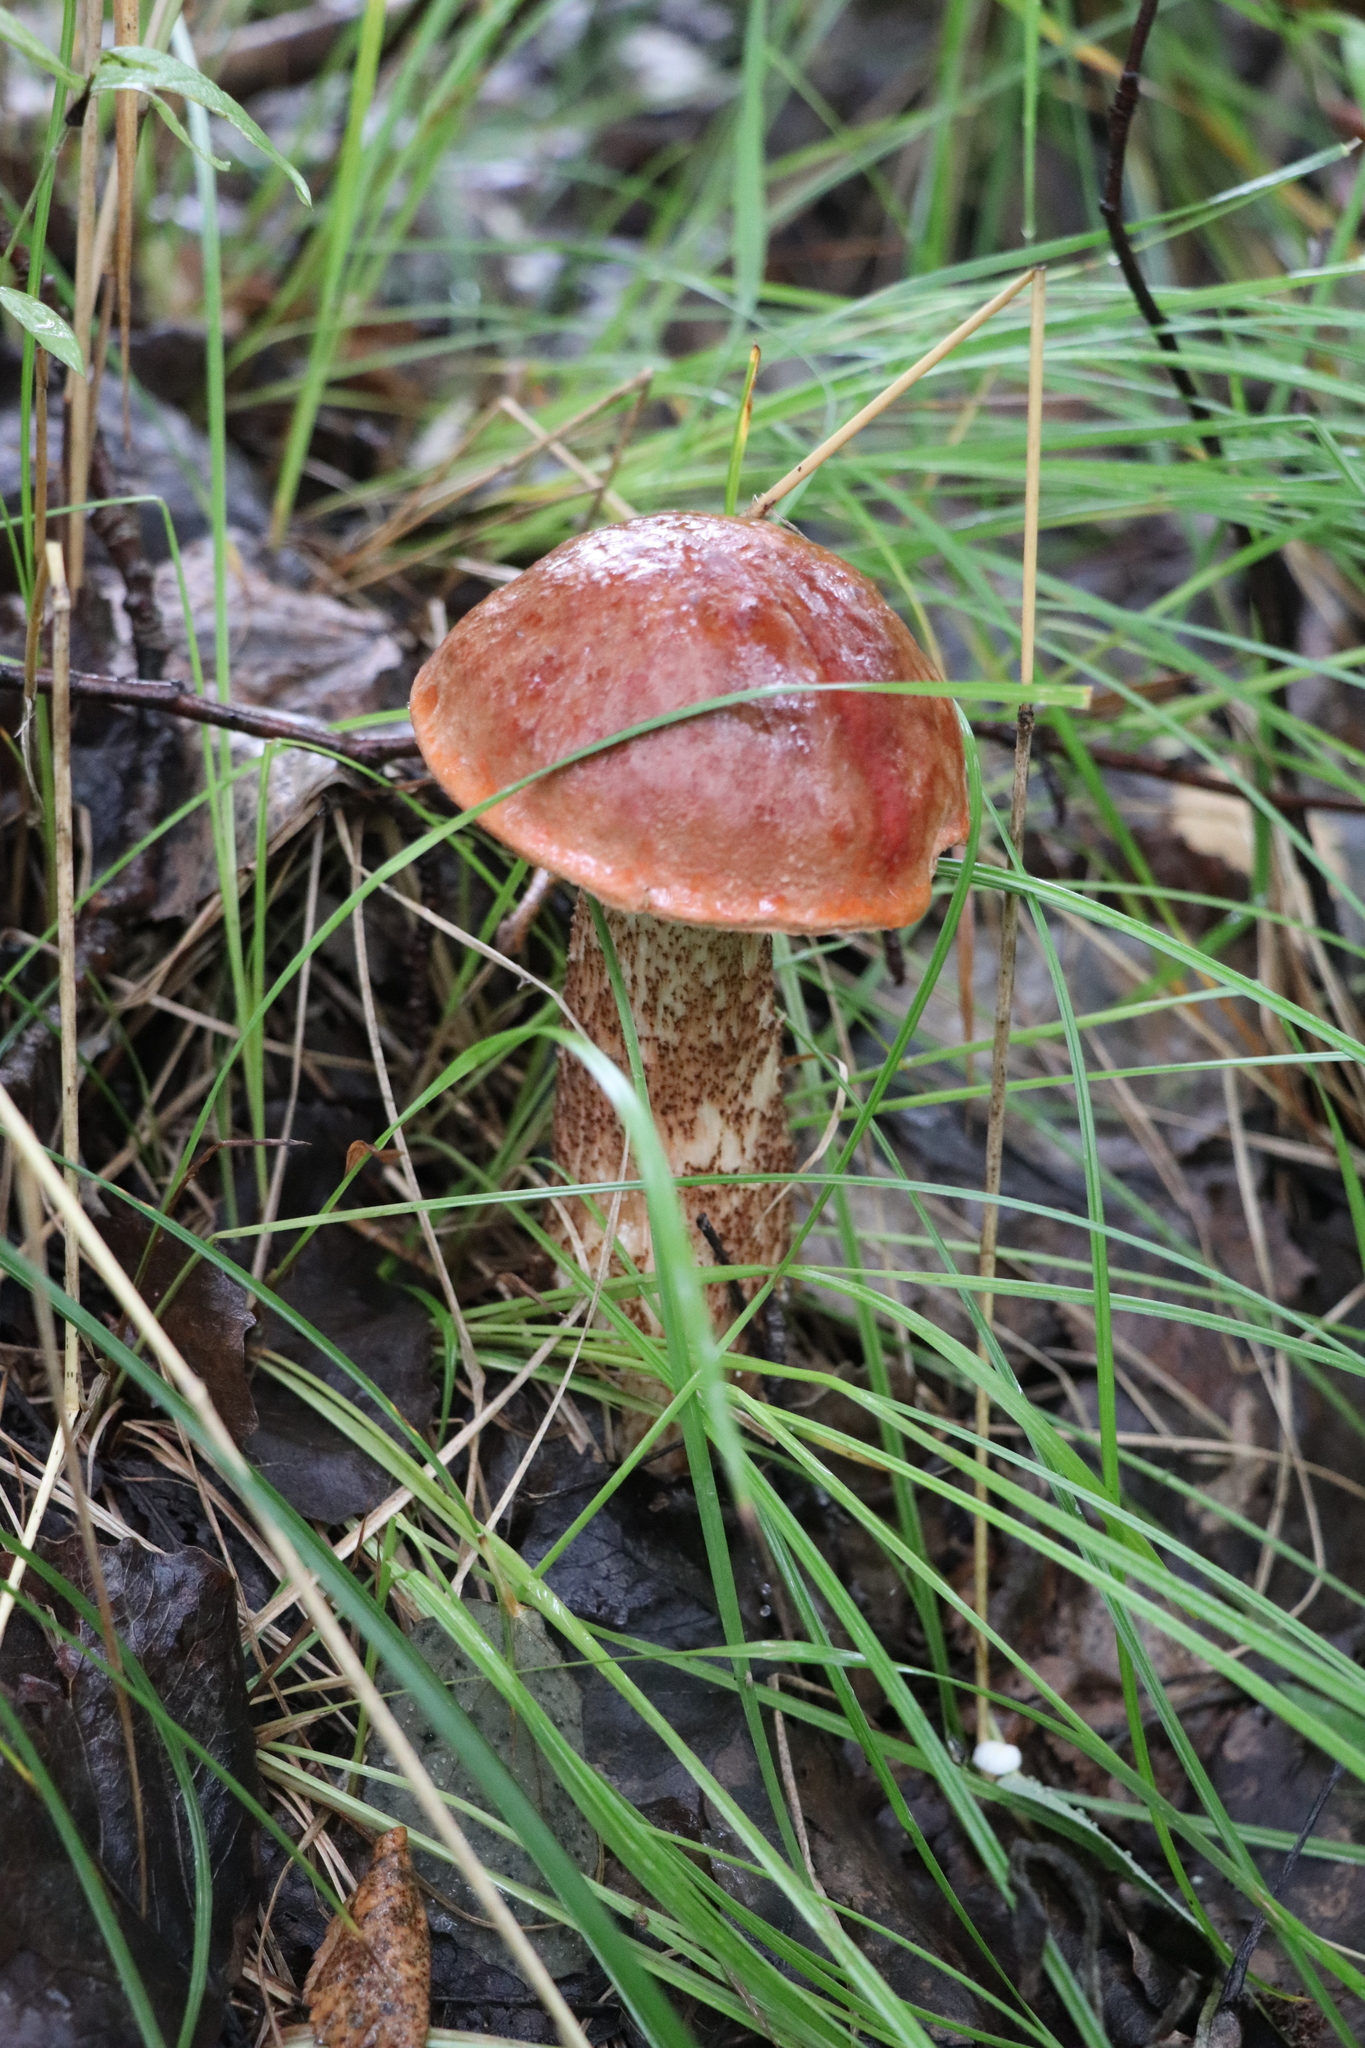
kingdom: Fungi
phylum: Basidiomycota
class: Agaricomycetes
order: Boletales
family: Boletaceae
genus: Leccinum
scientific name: Leccinum aurantiacum
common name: Orange bolete
